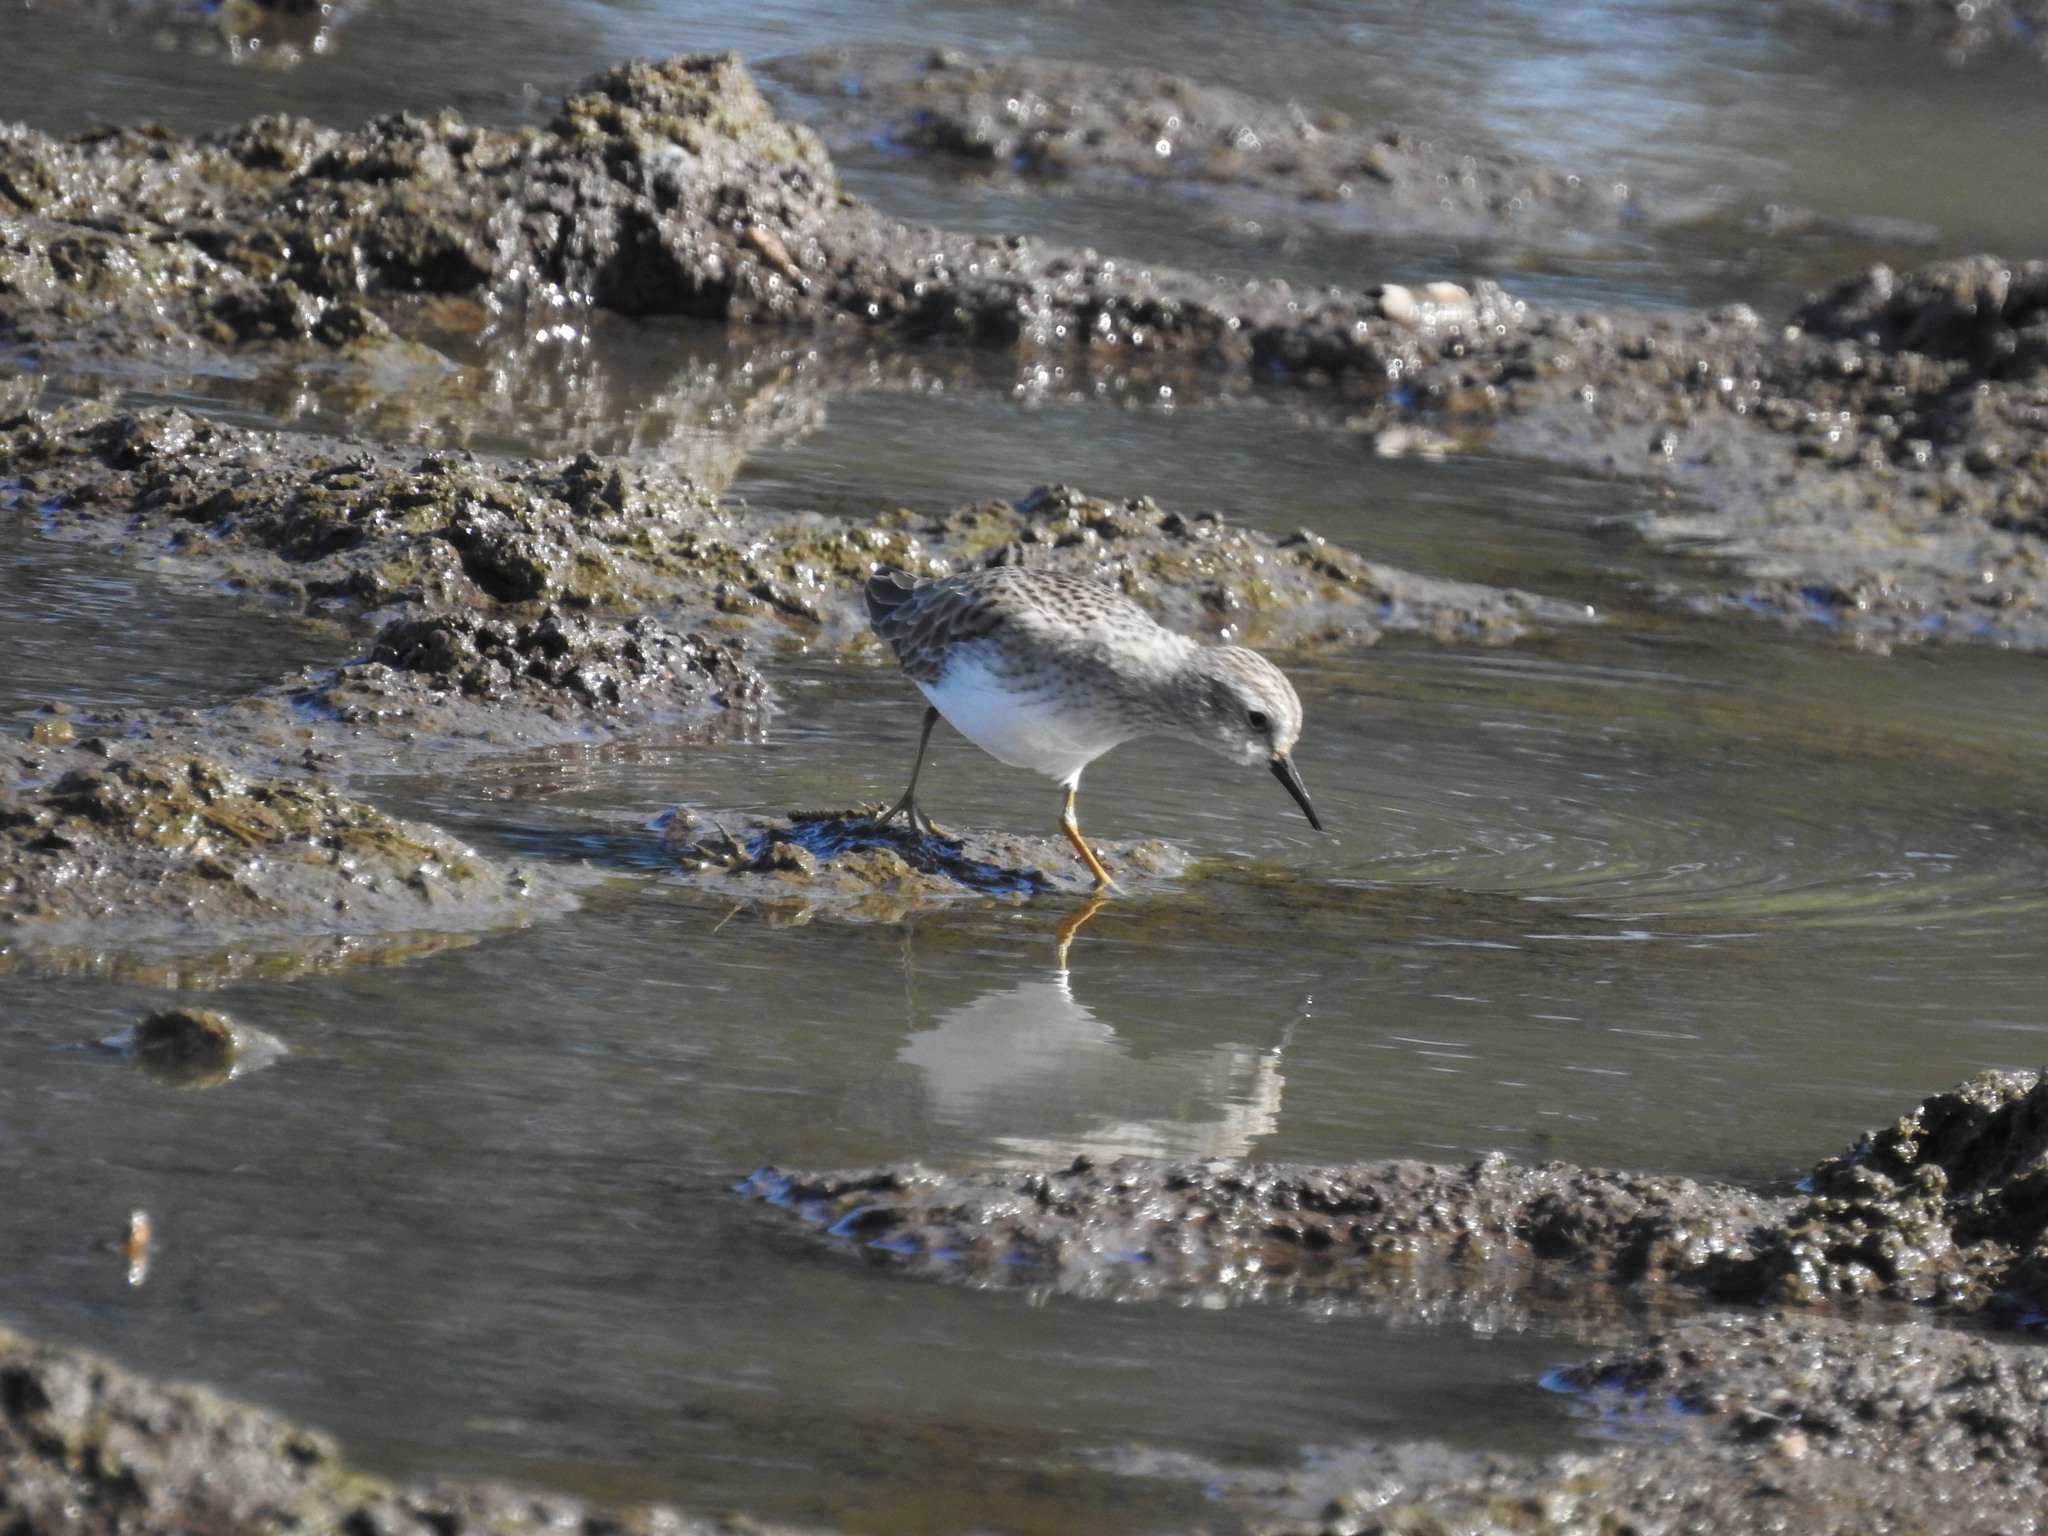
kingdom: Animalia
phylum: Chordata
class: Aves
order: Charadriiformes
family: Scolopacidae
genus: Calidris
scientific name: Calidris minutilla
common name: Least sandpiper
